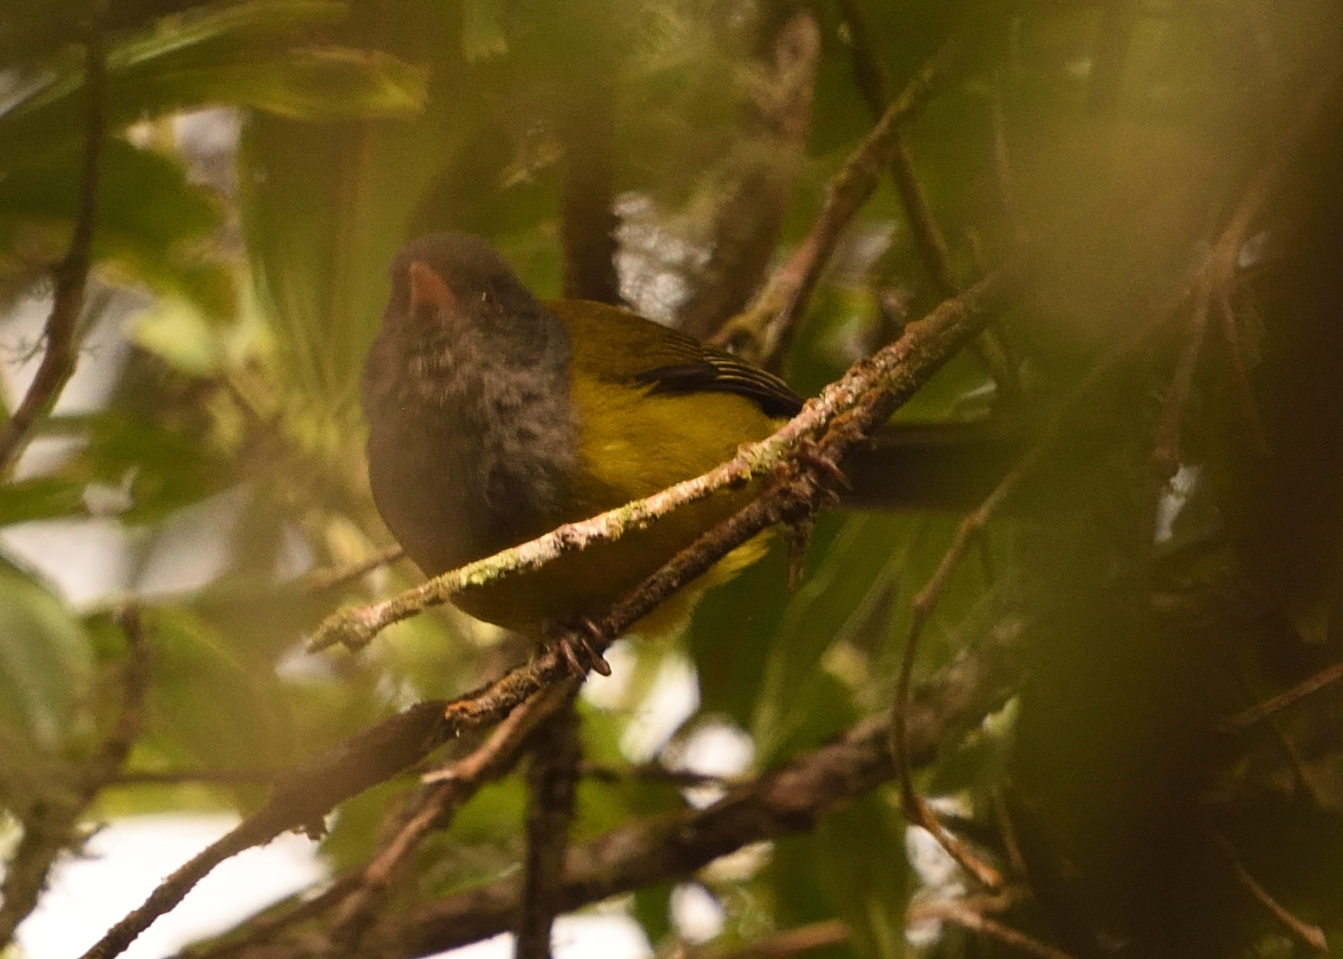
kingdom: Animalia
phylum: Chordata
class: Aves
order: Passeriformes
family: Thraupidae
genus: Cnemoscopus
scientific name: Cnemoscopus rubrirostris
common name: Grey-hooded bush tanager
